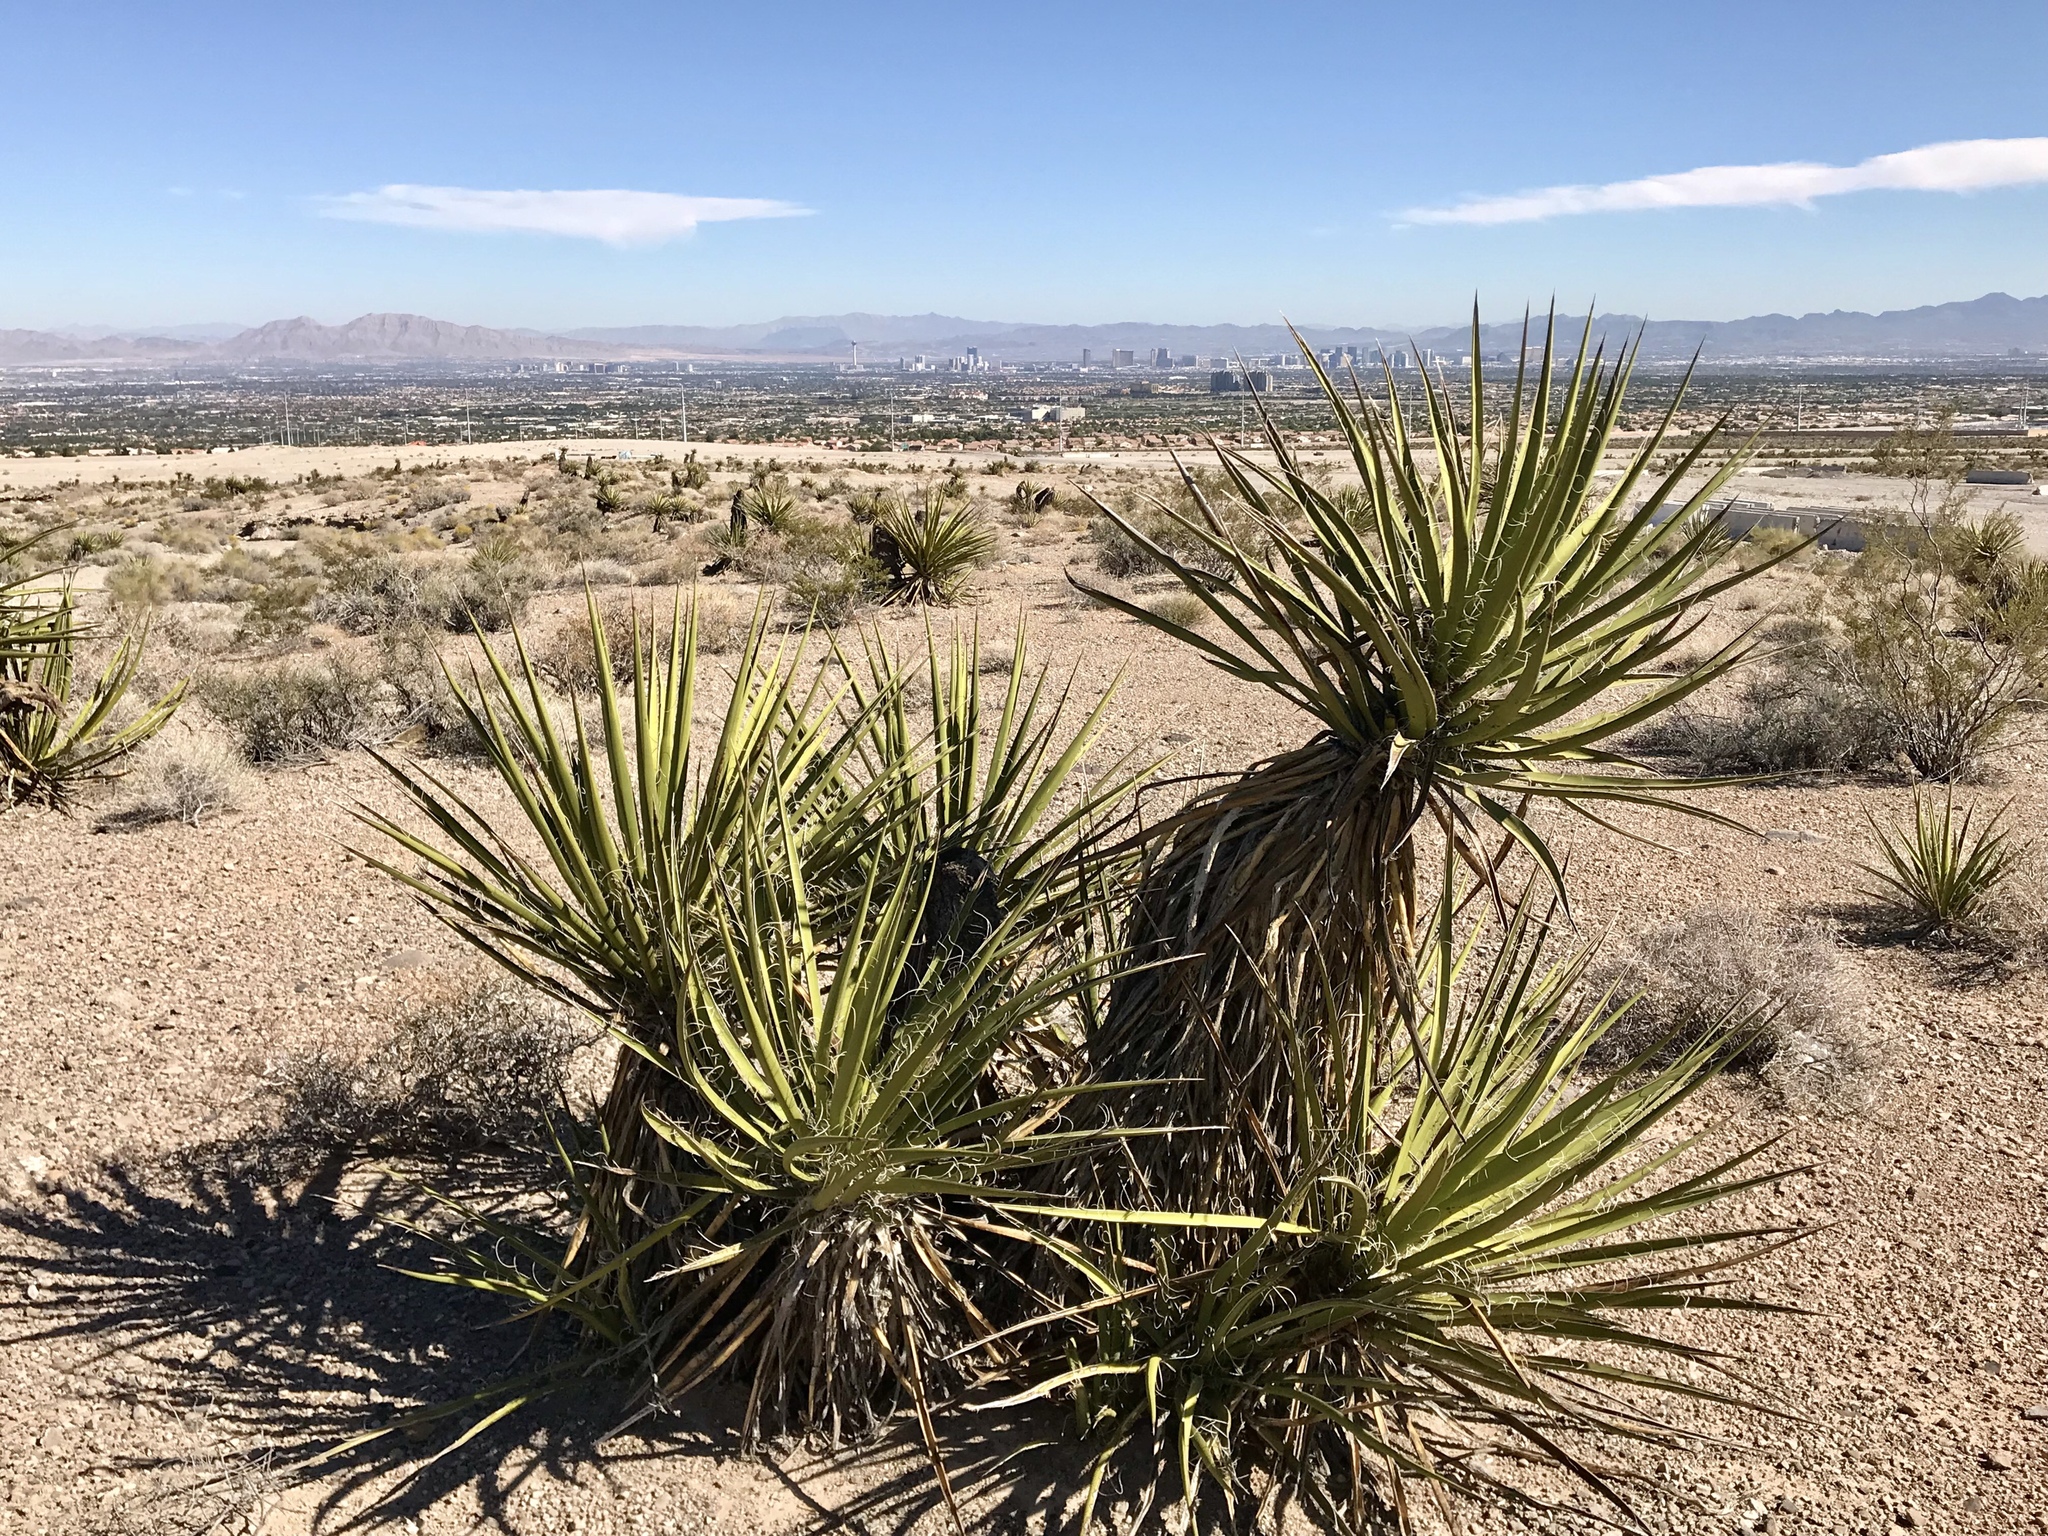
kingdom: Plantae
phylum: Tracheophyta
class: Liliopsida
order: Asparagales
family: Asparagaceae
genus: Yucca
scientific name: Yucca schidigera
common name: Mojave yucca
